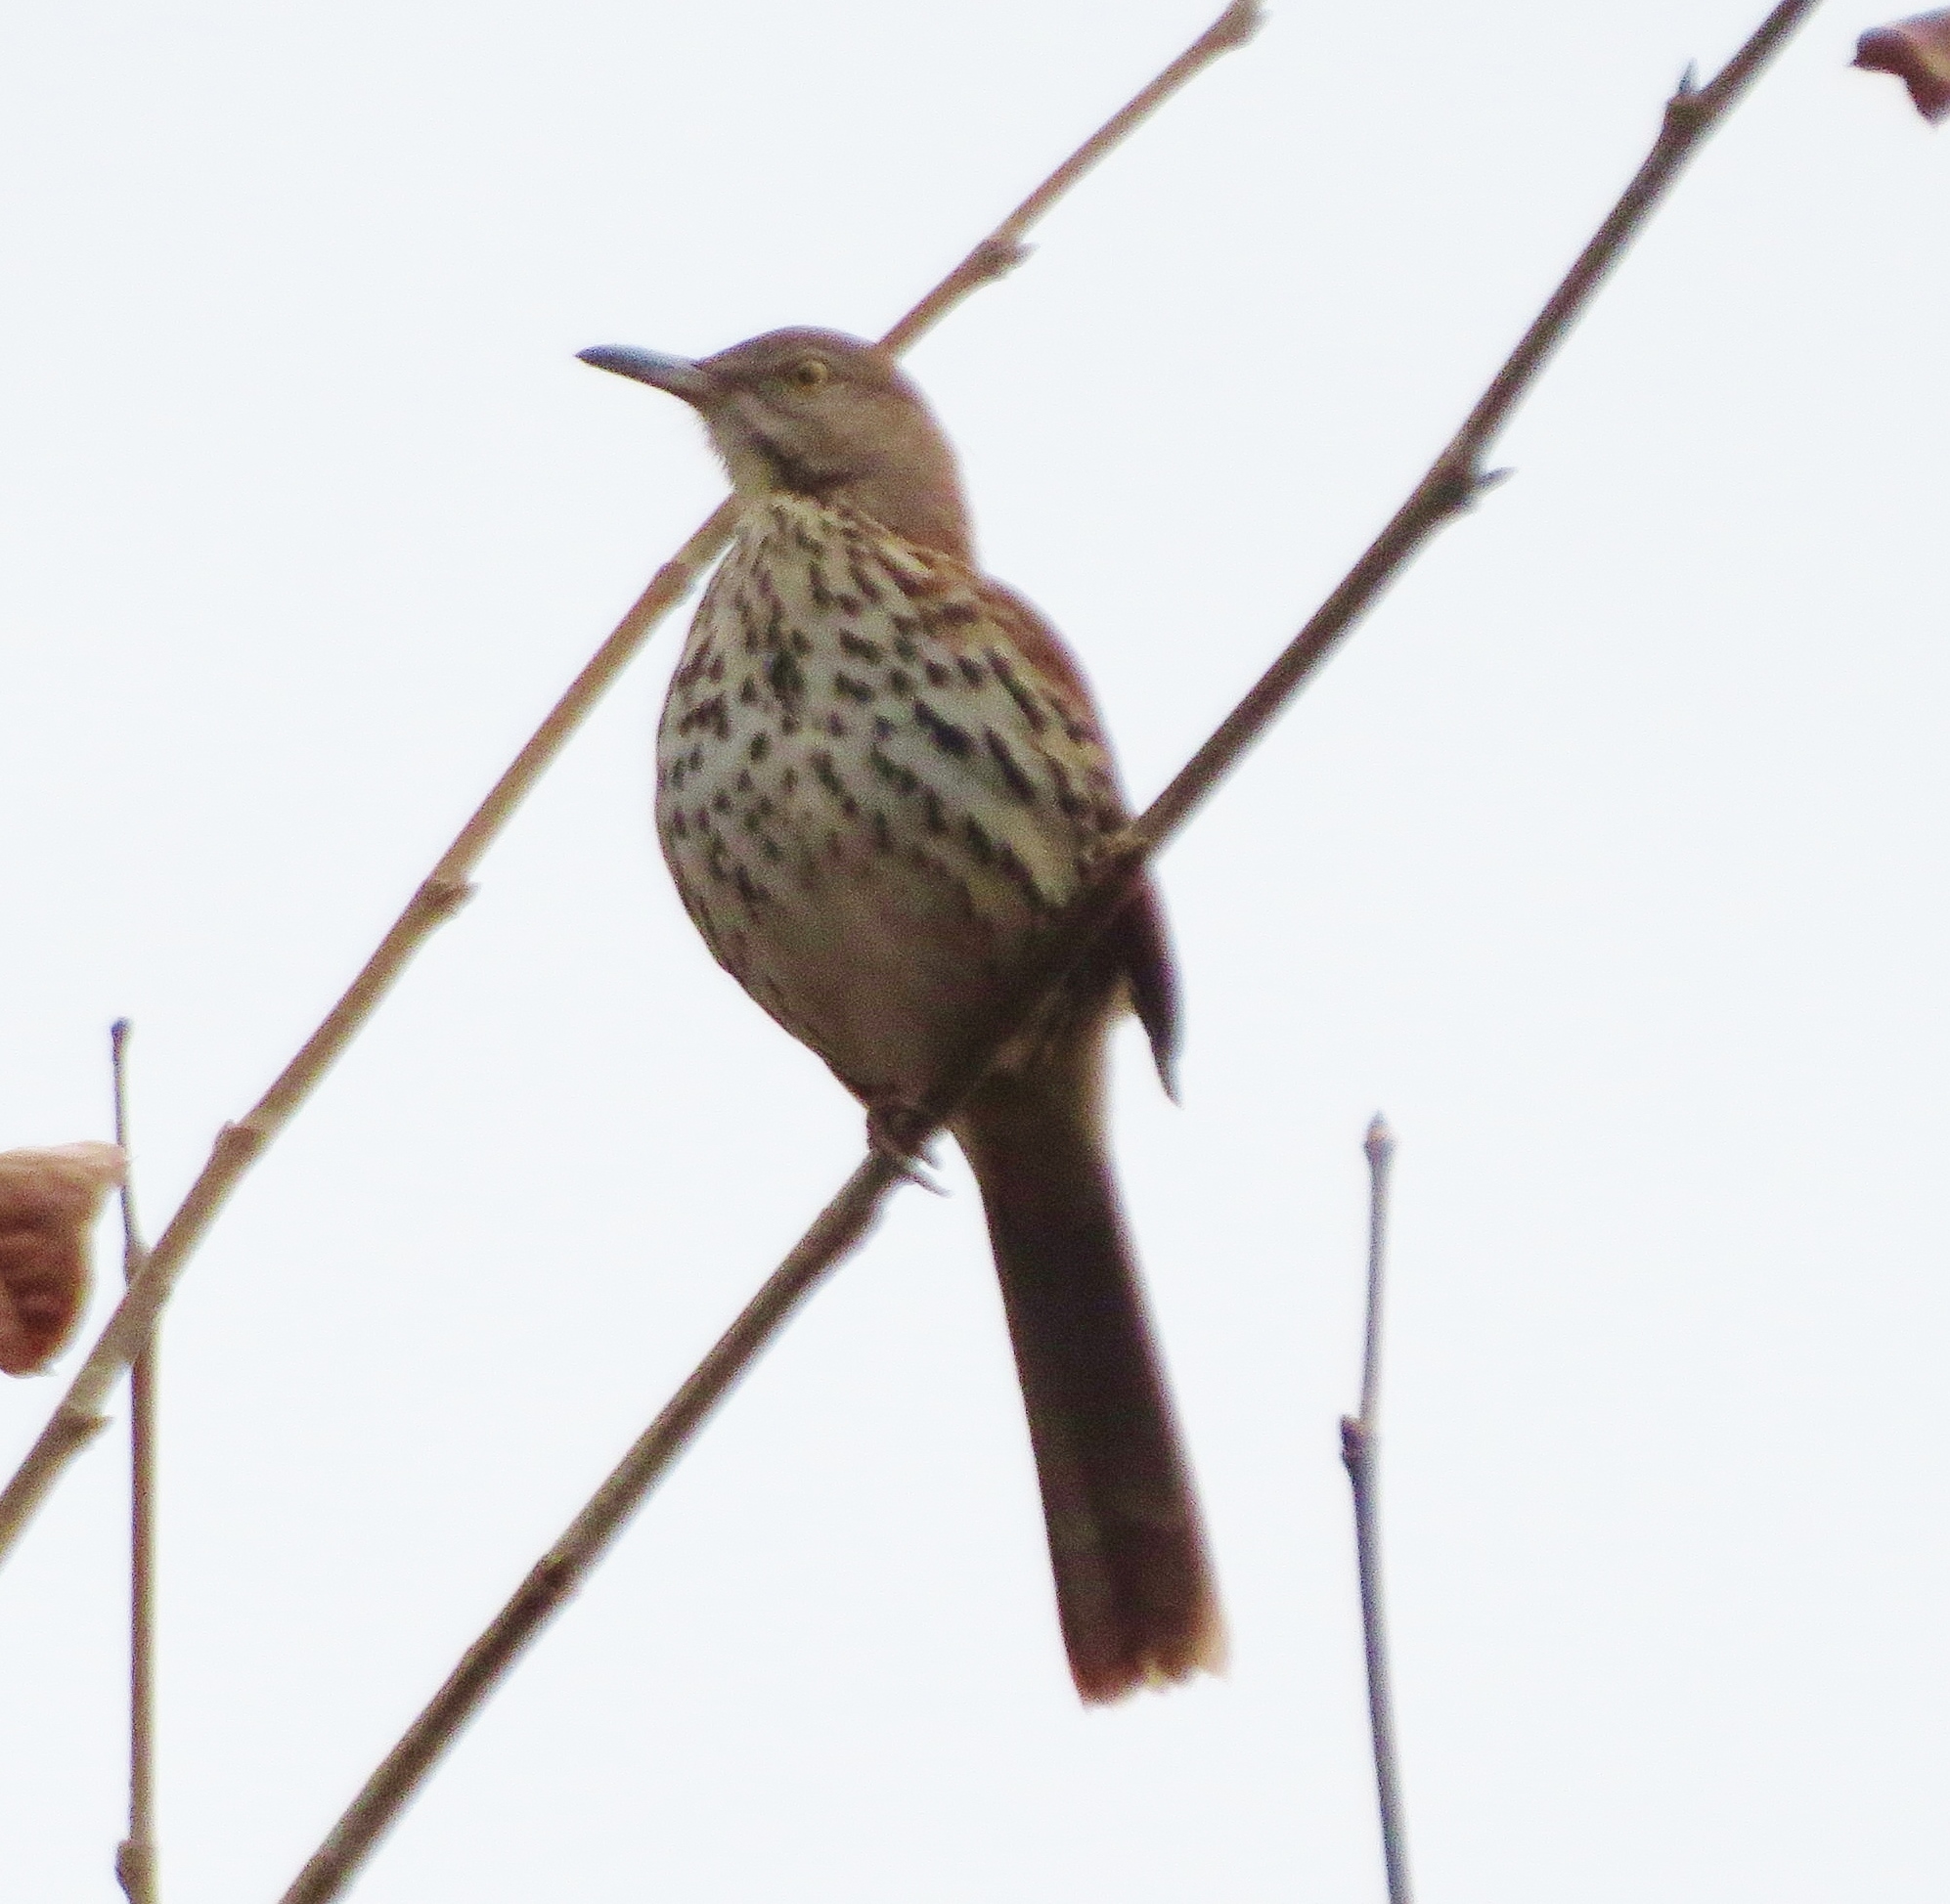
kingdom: Animalia
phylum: Chordata
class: Aves
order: Passeriformes
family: Mimidae
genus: Toxostoma
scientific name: Toxostoma rufum
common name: Brown thrasher
